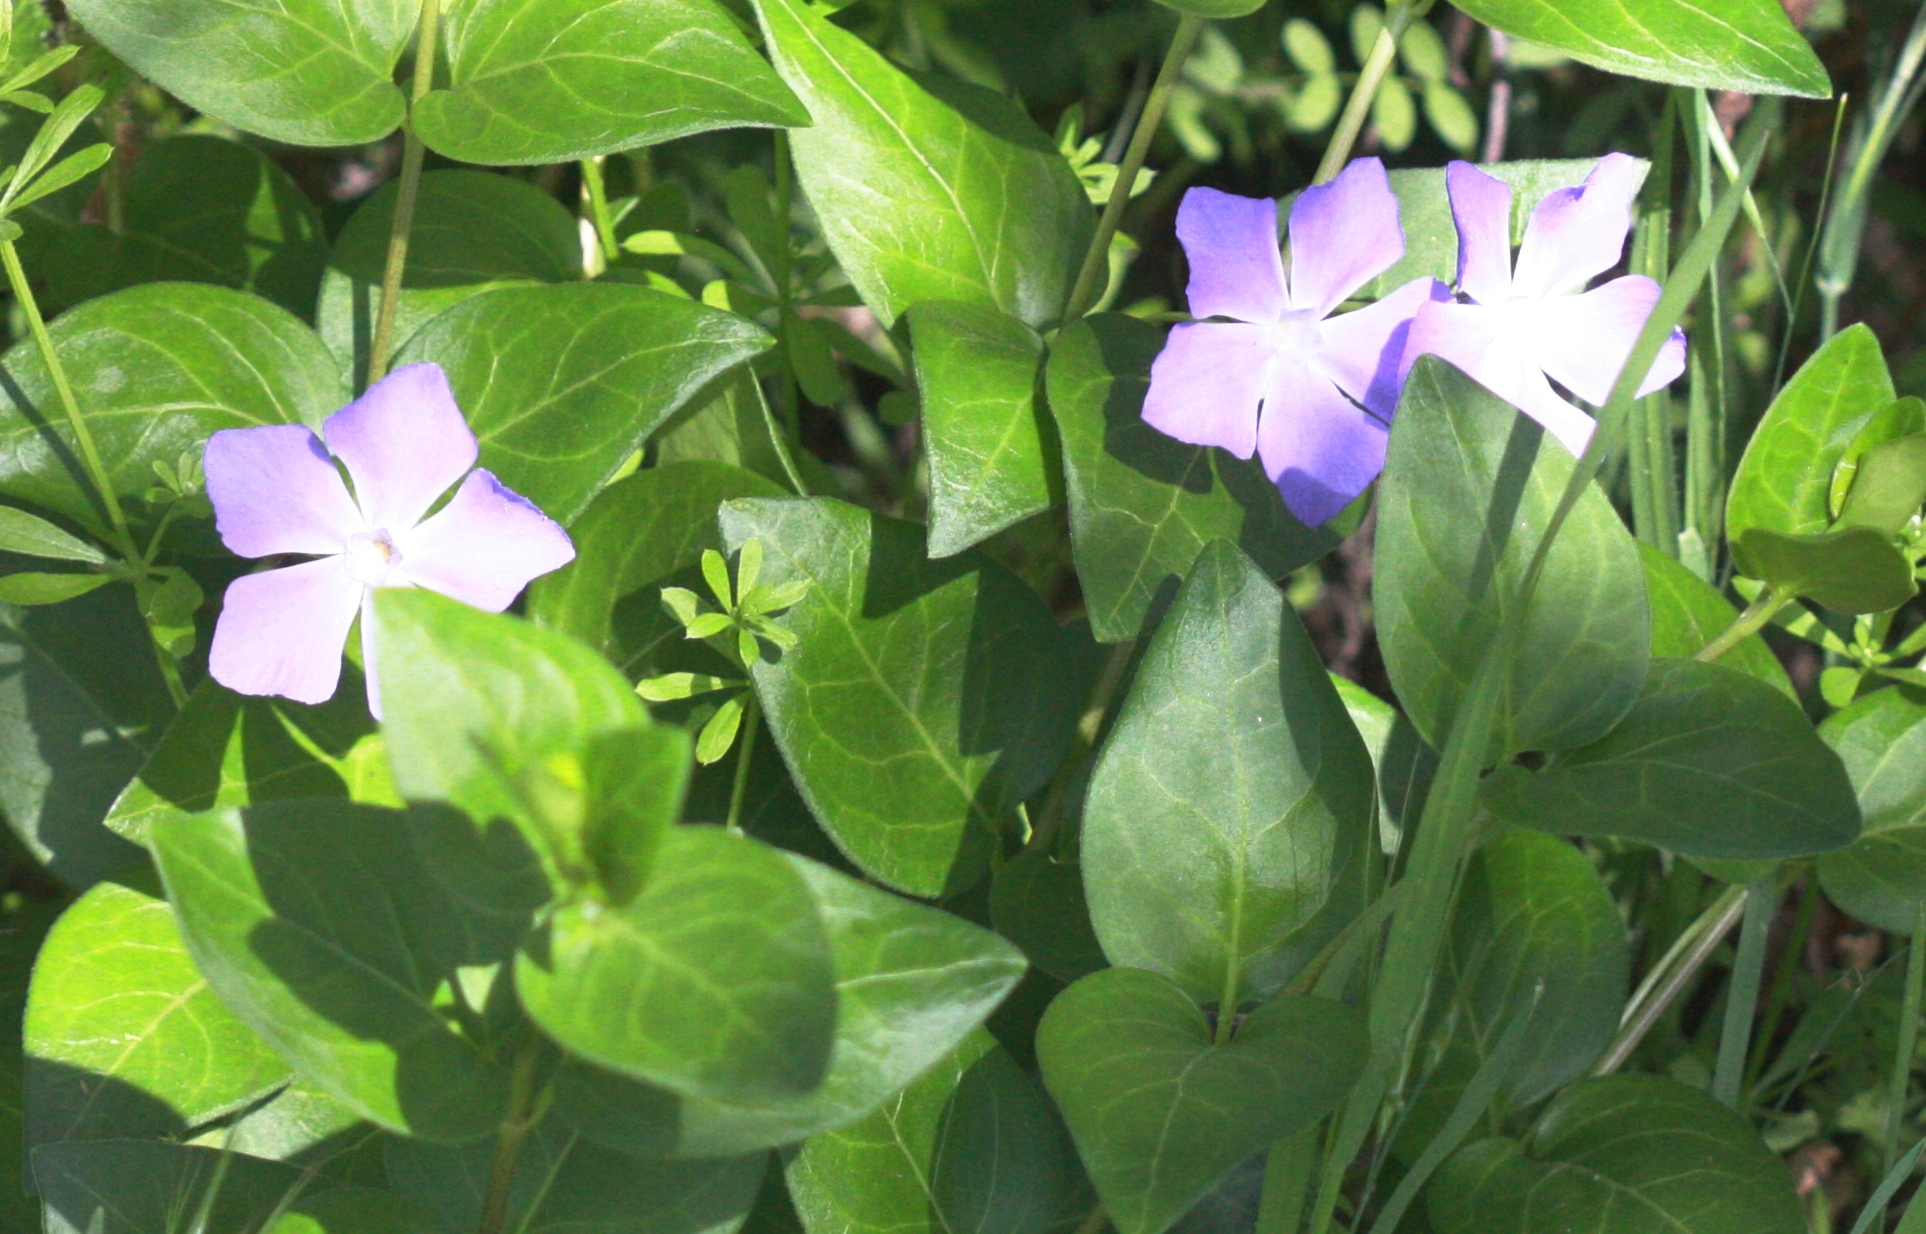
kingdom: Plantae
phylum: Tracheophyta
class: Magnoliopsida
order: Gentianales
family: Apocynaceae
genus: Vinca
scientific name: Vinca major
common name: Greater periwinkle
